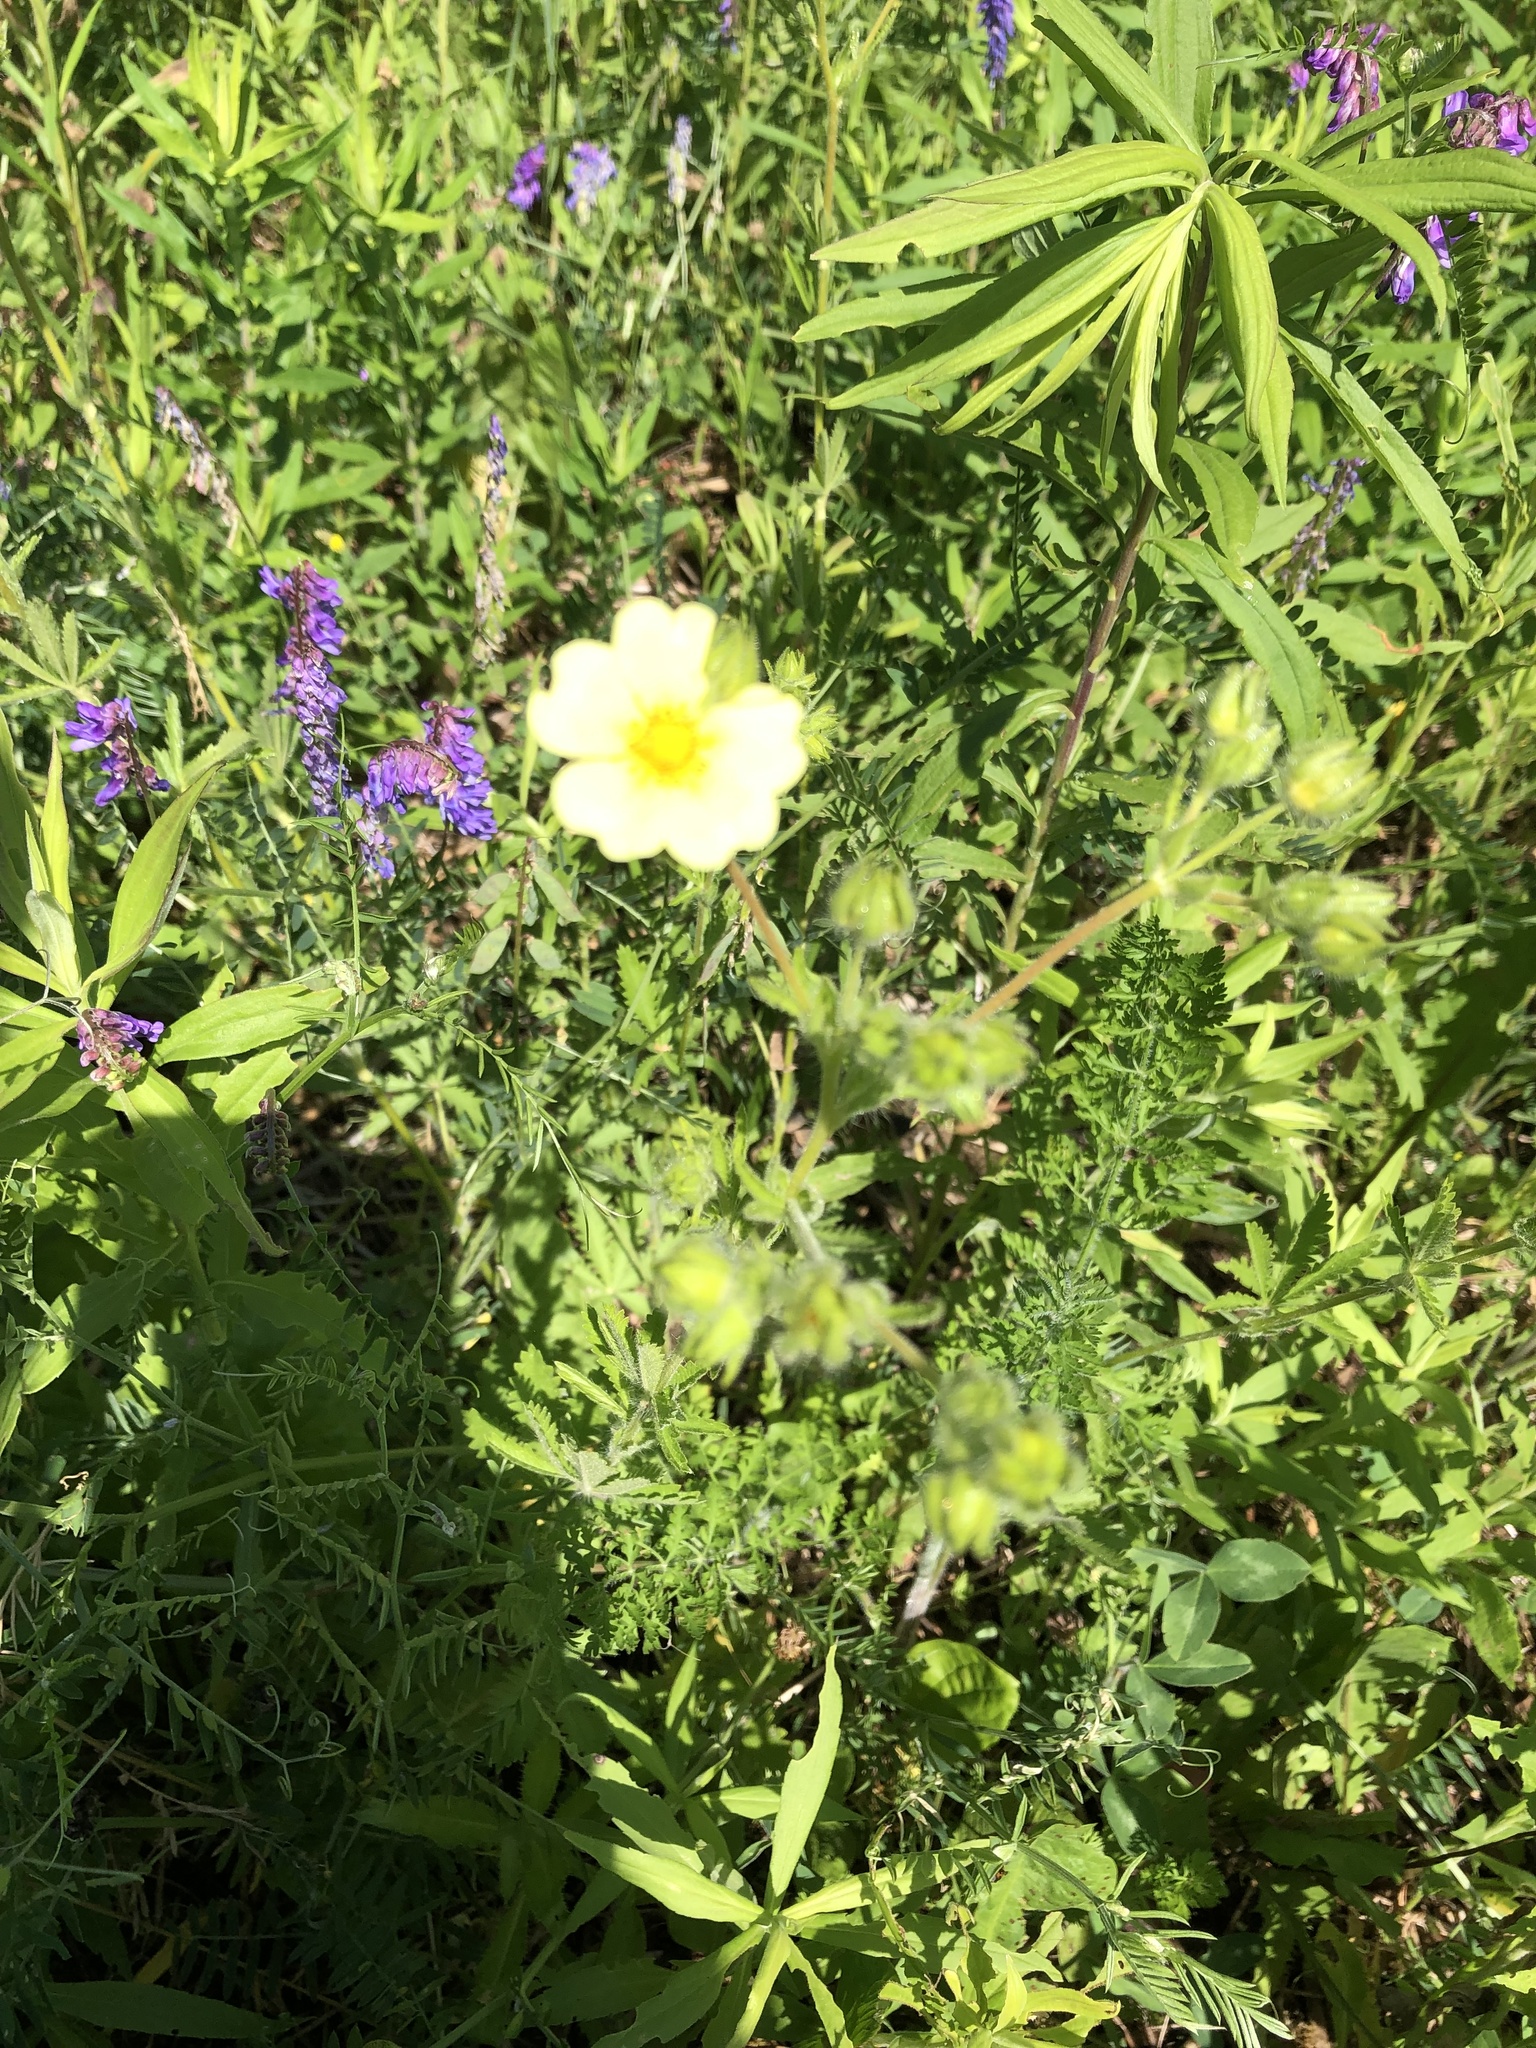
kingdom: Plantae
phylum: Tracheophyta
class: Magnoliopsida
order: Rosales
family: Rosaceae
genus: Potentilla
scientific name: Potentilla recta
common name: Sulphur cinquefoil
